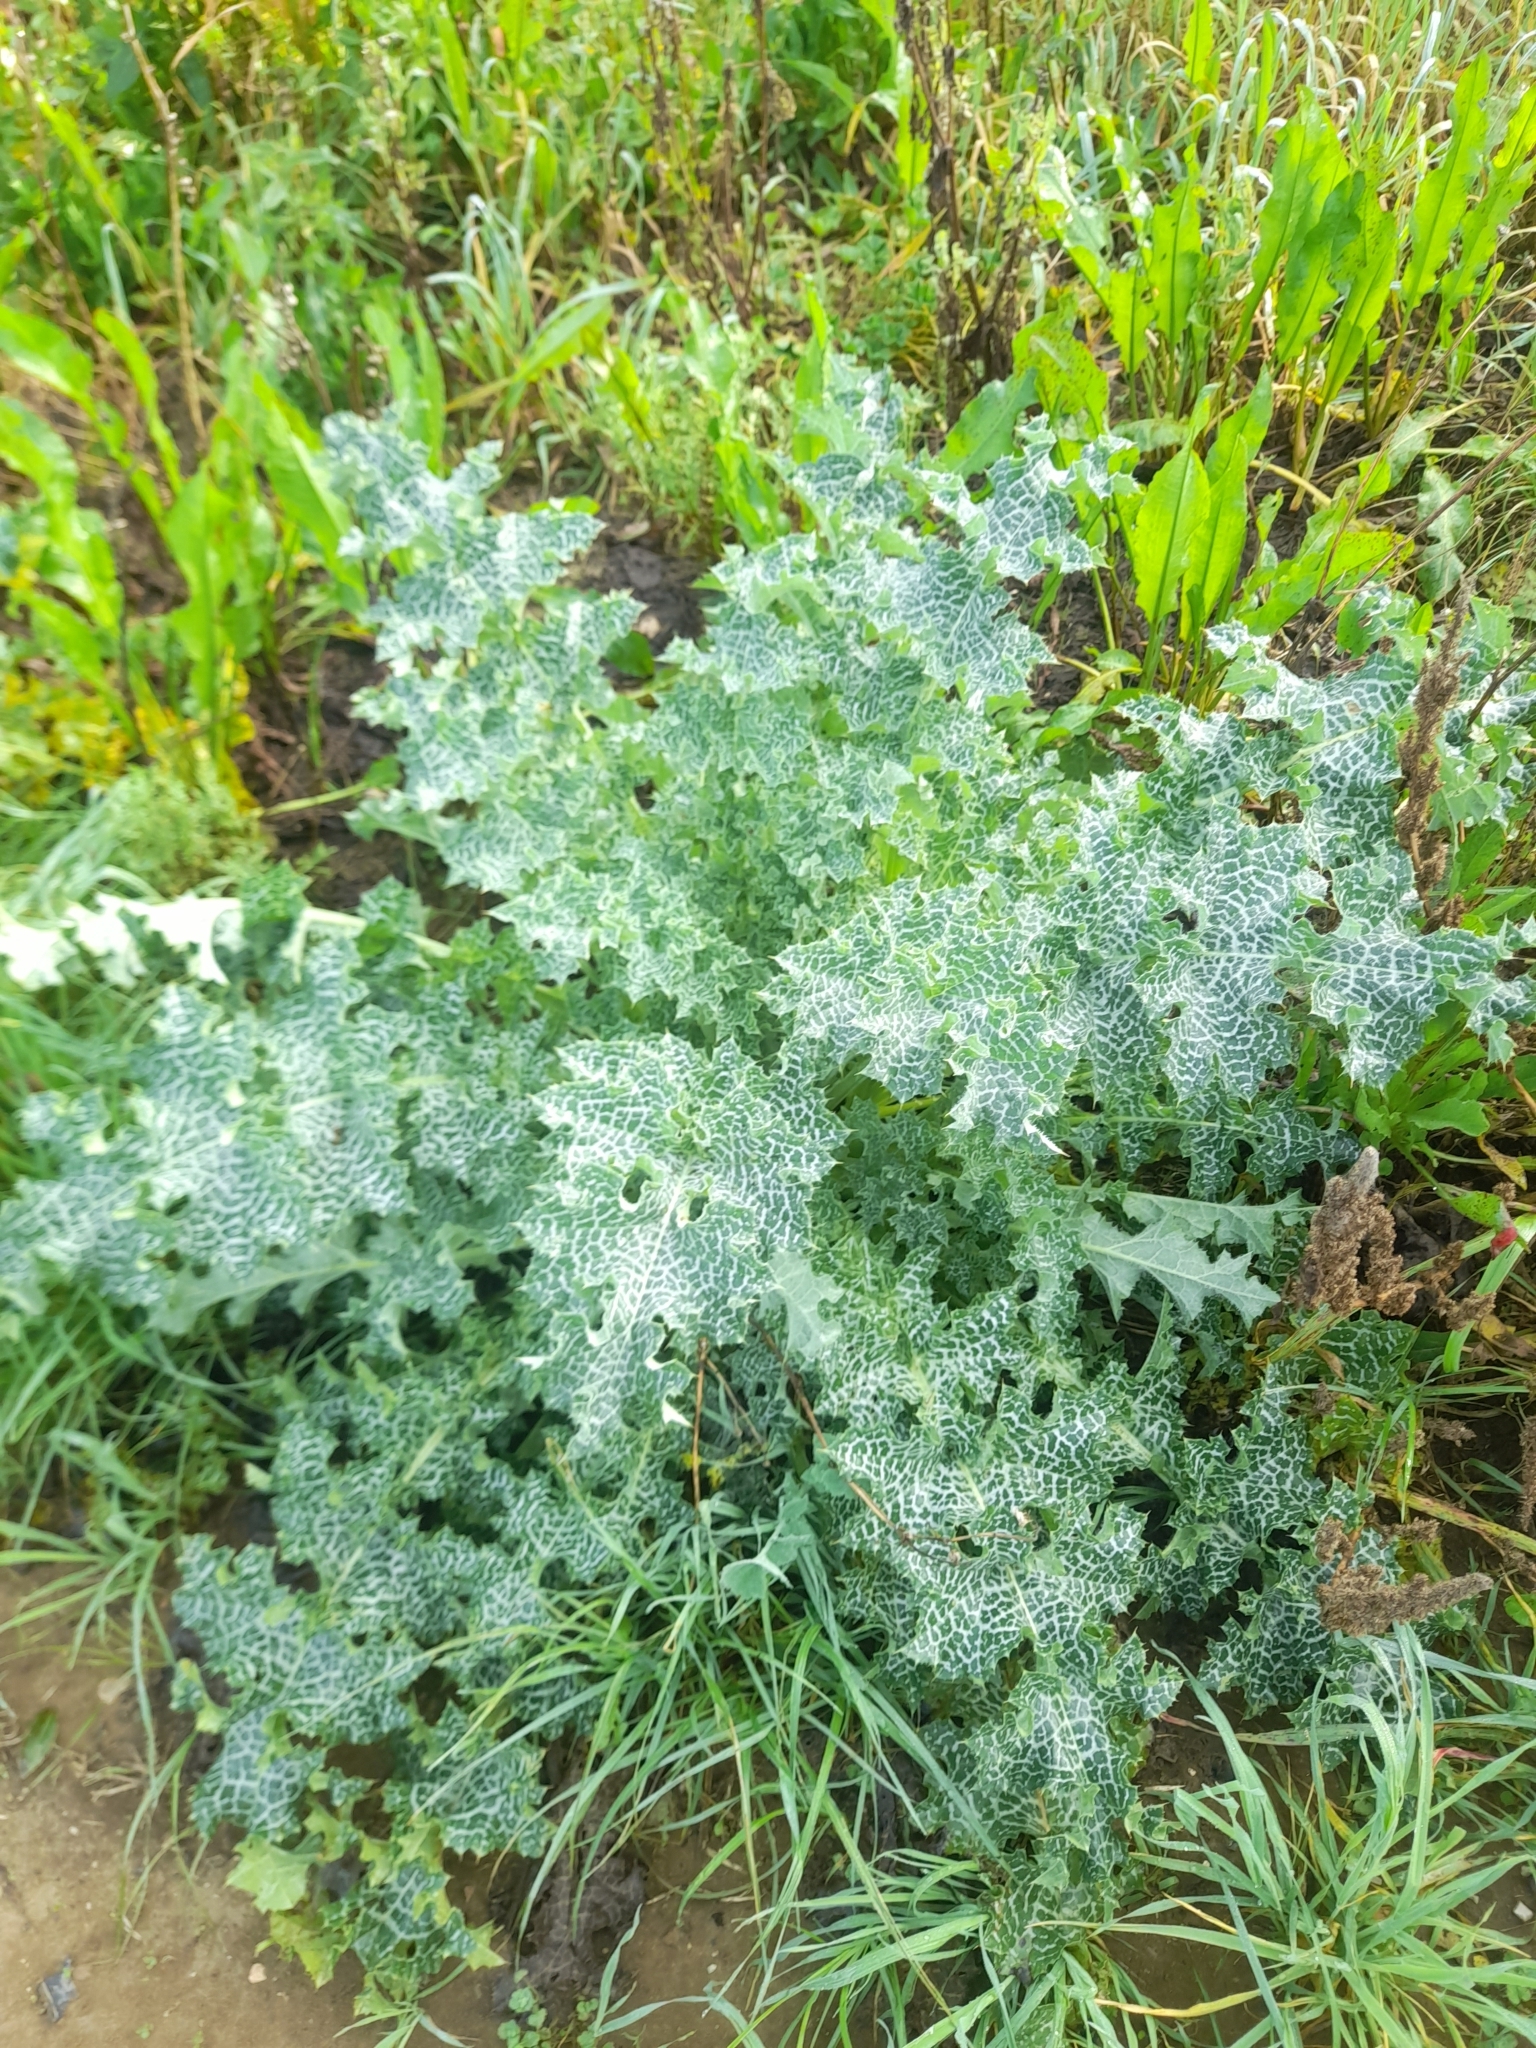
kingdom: Plantae
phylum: Tracheophyta
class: Magnoliopsida
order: Asterales
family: Asteraceae
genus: Silybum
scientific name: Silybum marianum
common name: Milk thistle
